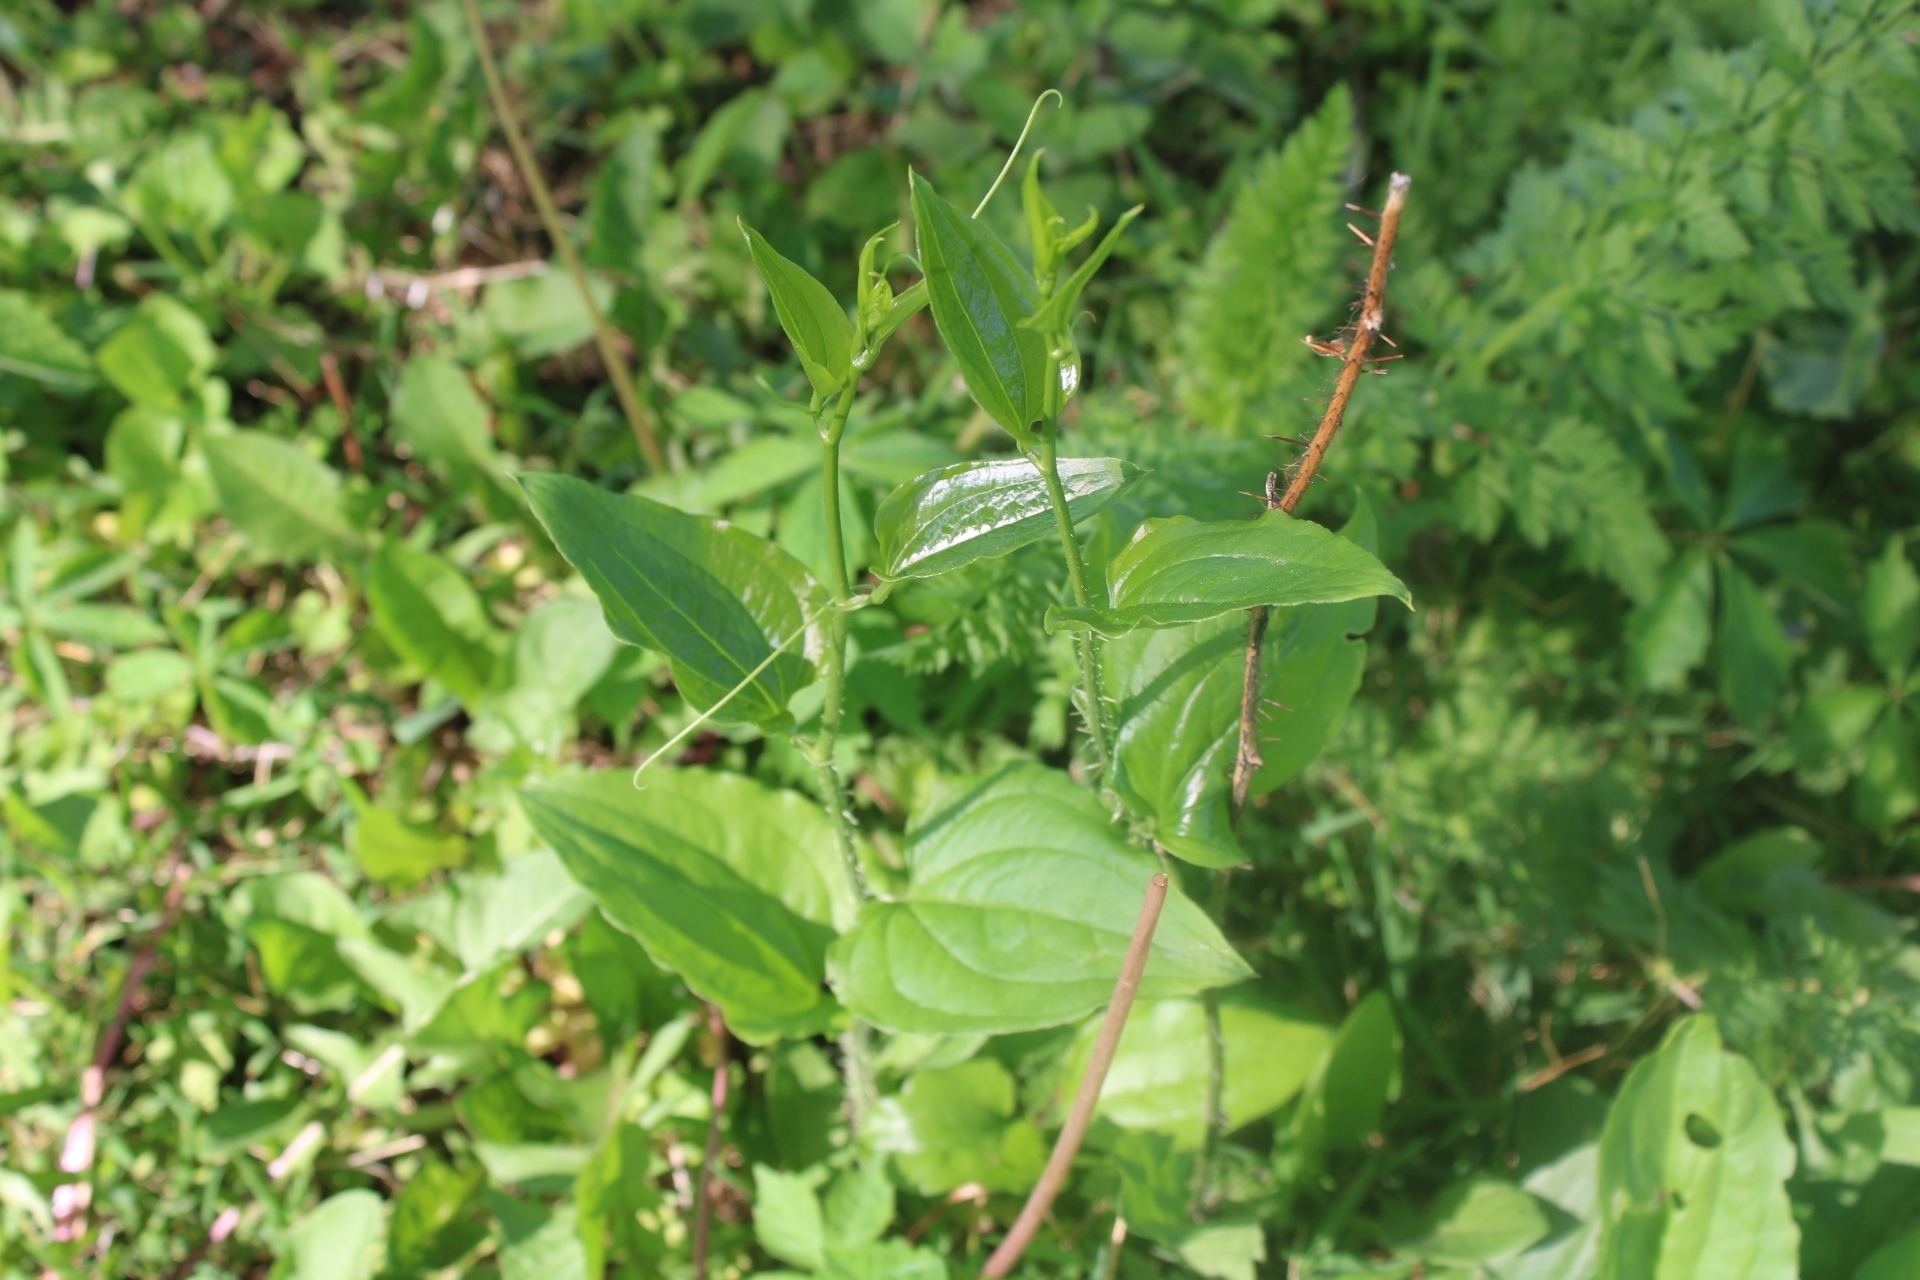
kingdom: Plantae
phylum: Tracheophyta
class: Liliopsida
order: Liliales
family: Smilacaceae
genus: Smilax
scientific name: Smilax tamnoides
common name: Hellfetter
